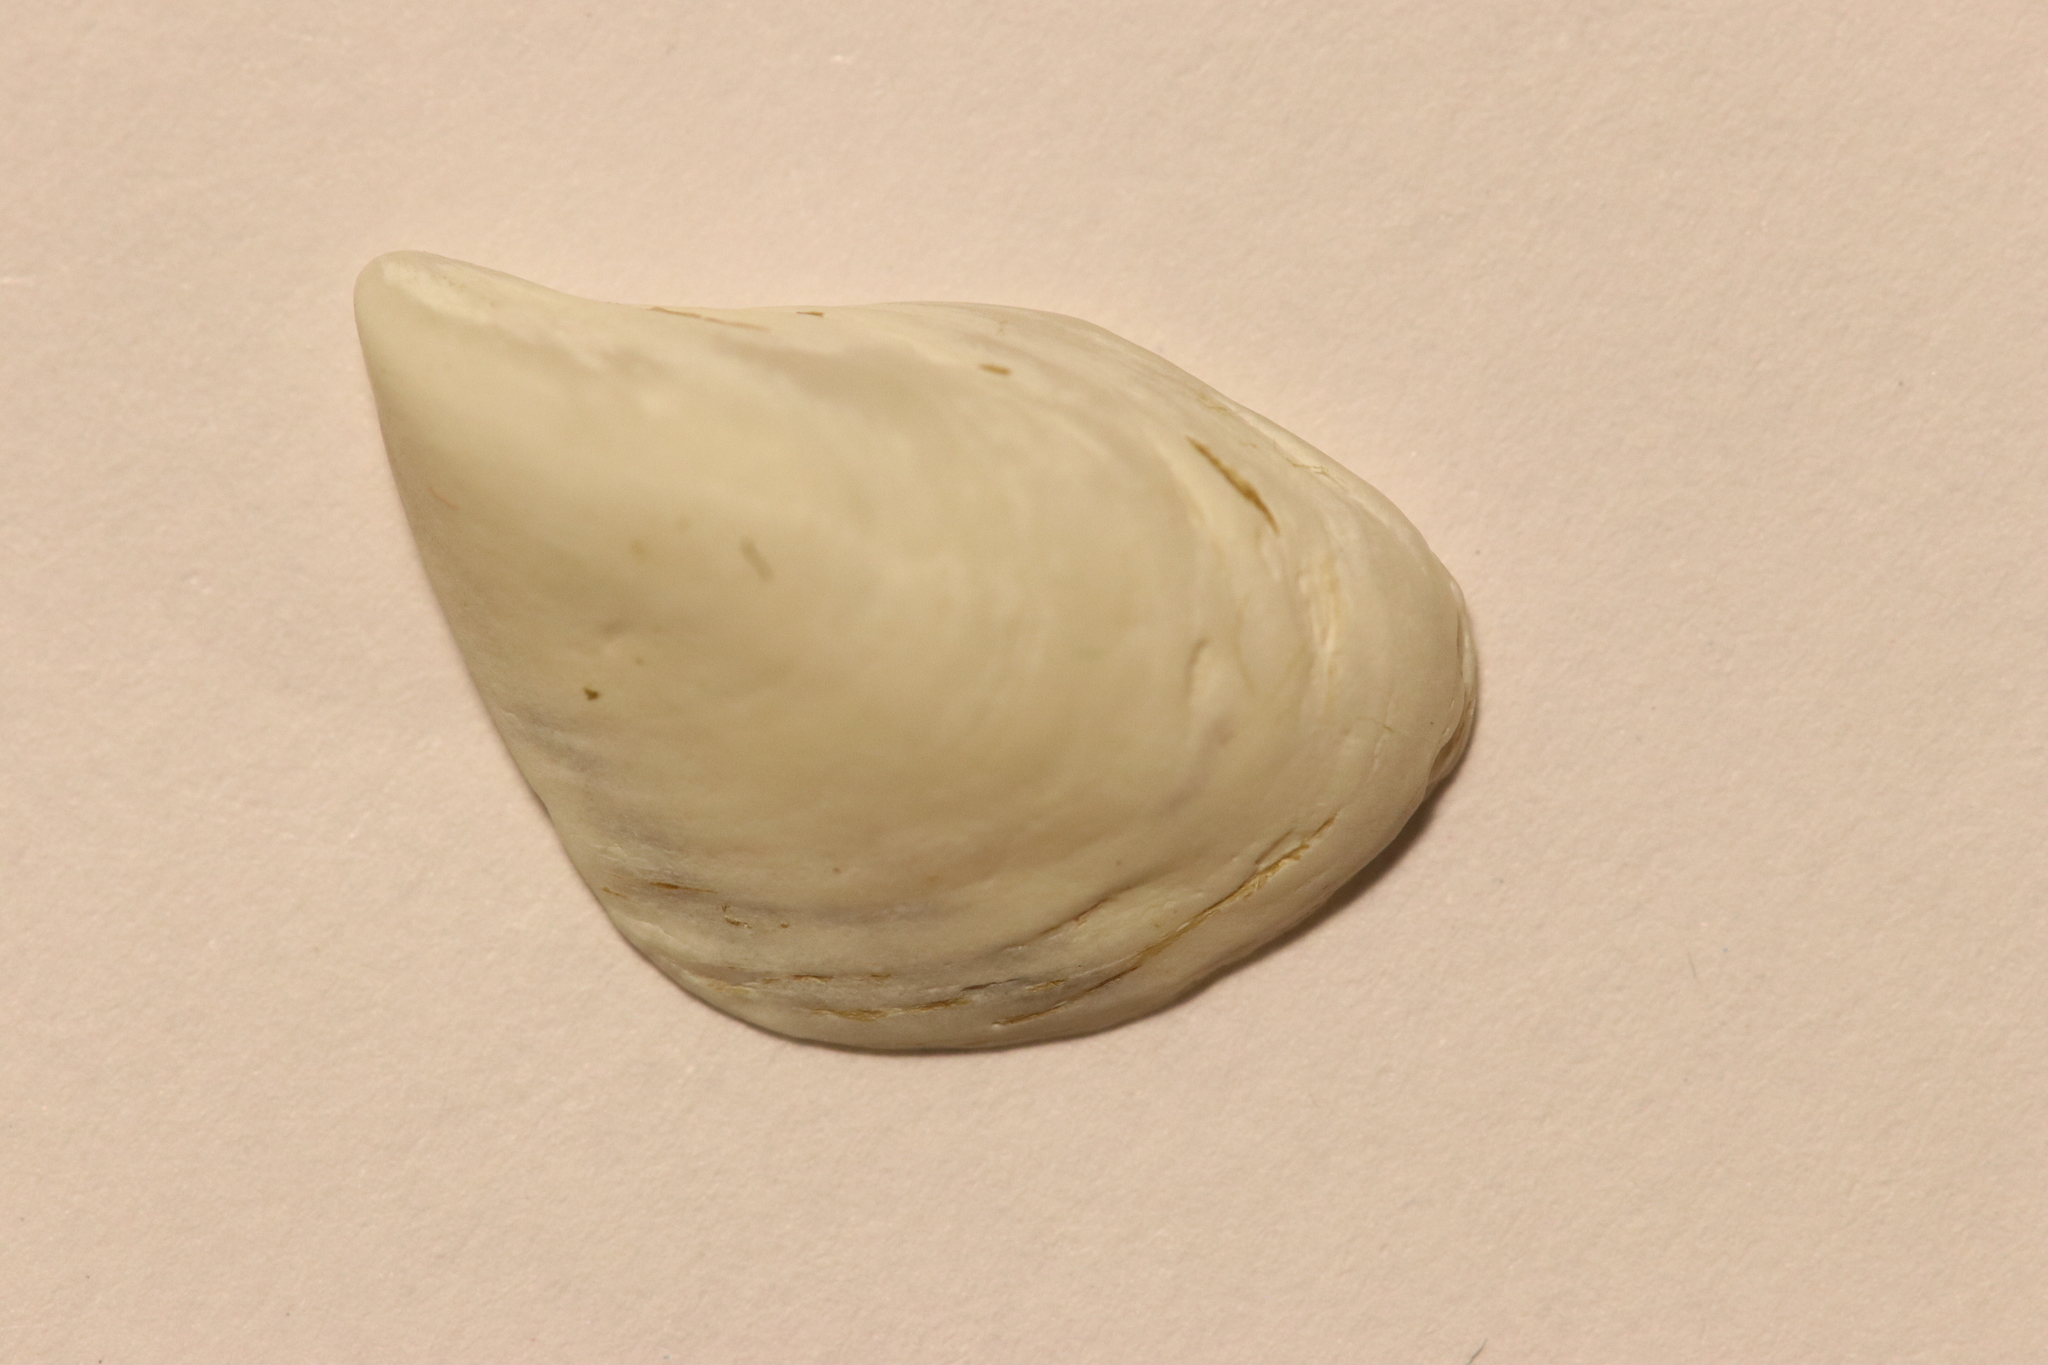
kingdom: Animalia
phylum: Mollusca
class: Bivalvia
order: Myida
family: Dreissenidae
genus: Dreissena
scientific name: Dreissena bugensis
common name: Quagga mussel
